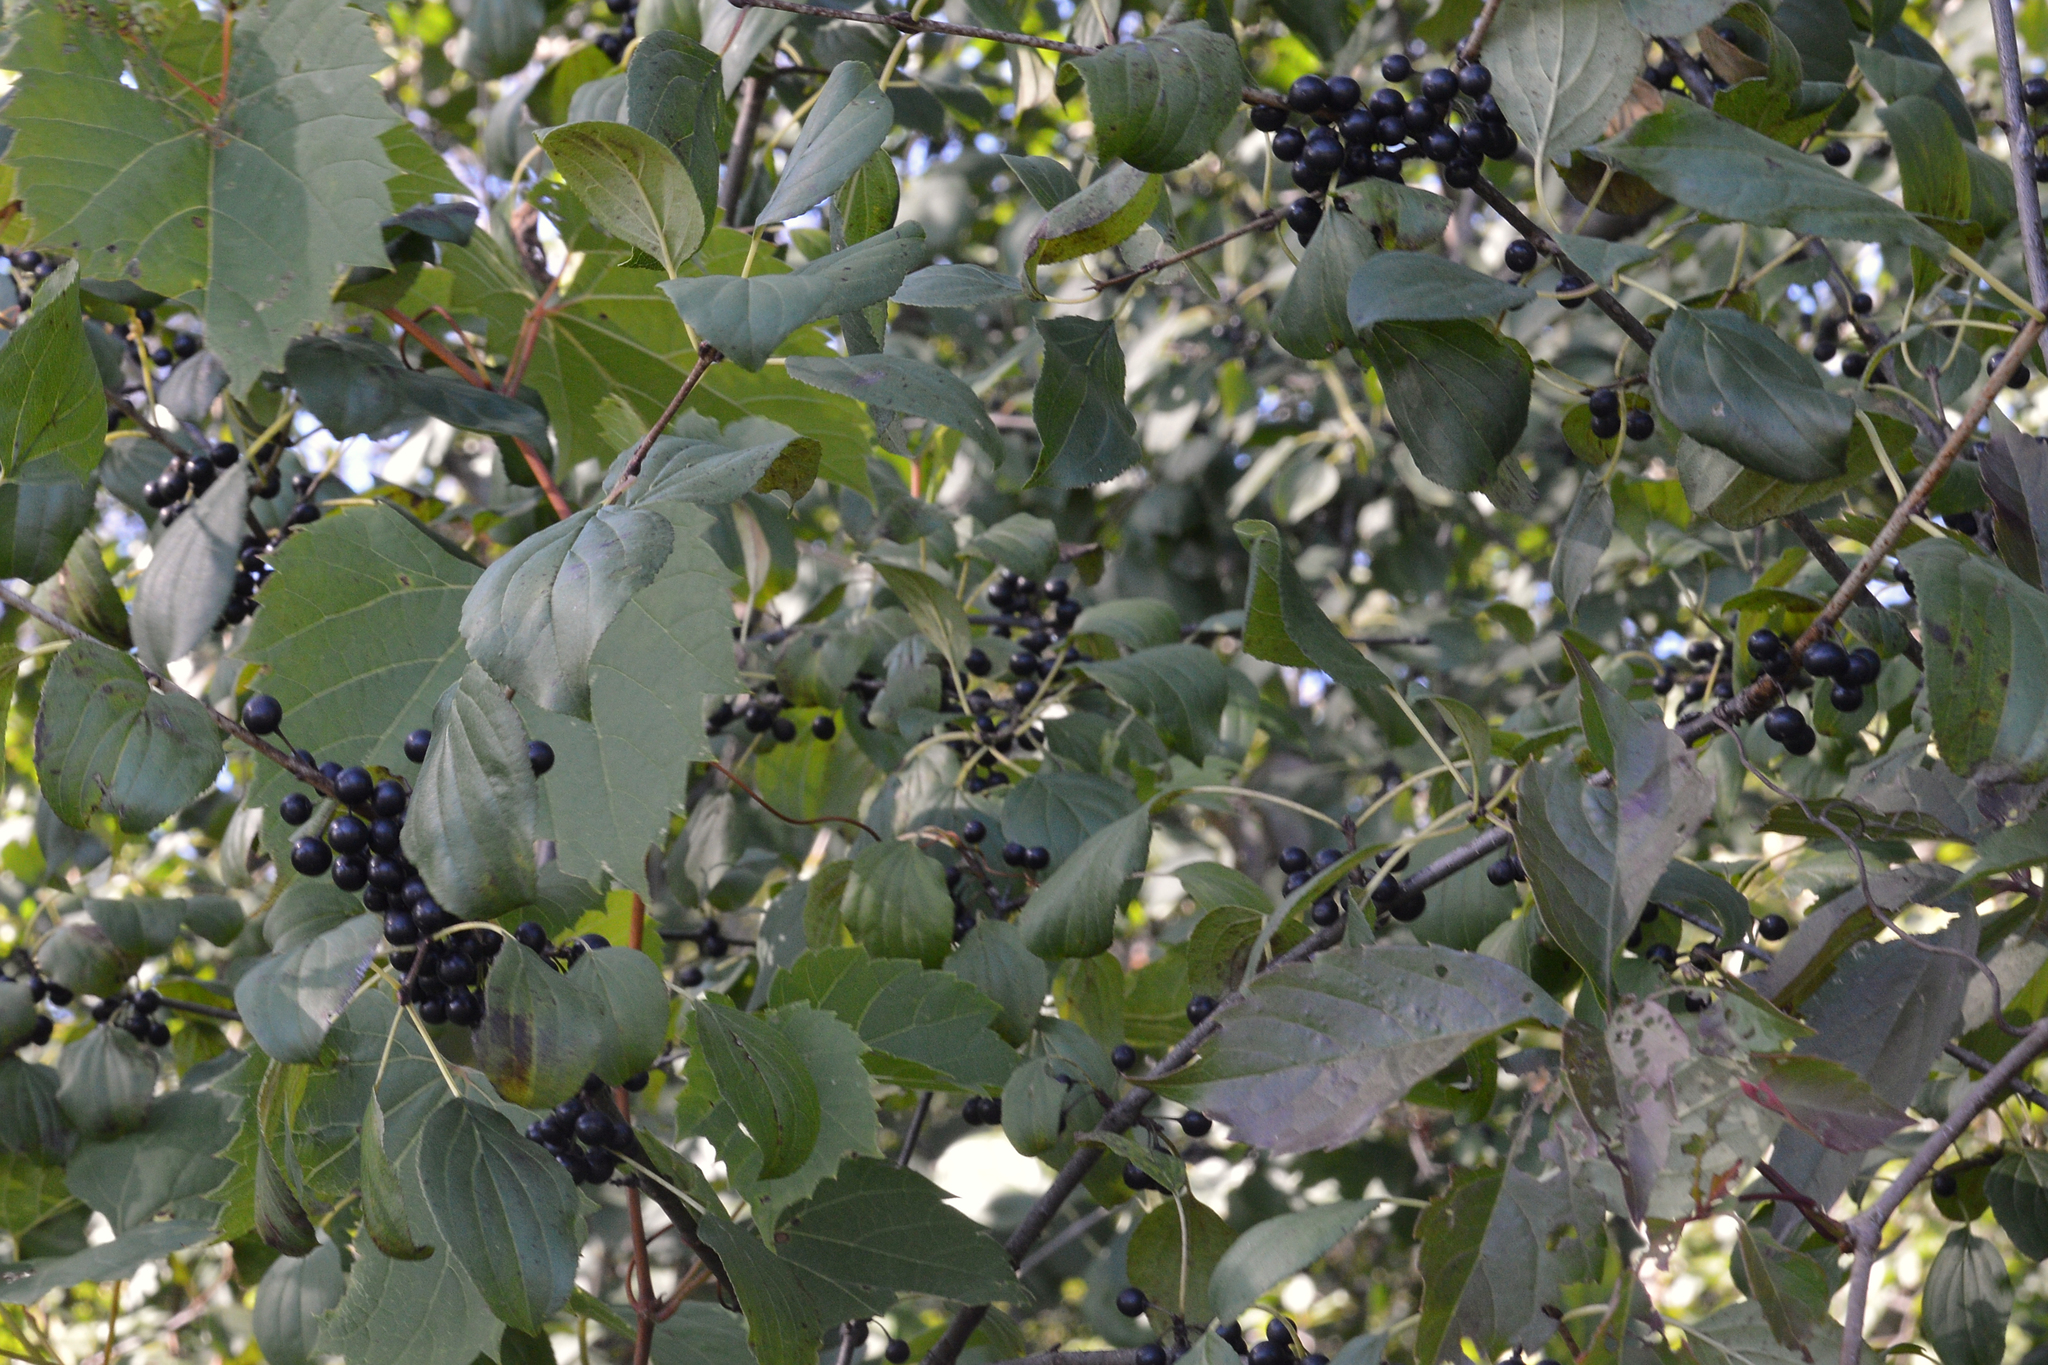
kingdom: Plantae
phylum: Tracheophyta
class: Magnoliopsida
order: Rosales
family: Rhamnaceae
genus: Rhamnus
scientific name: Rhamnus cathartica
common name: Common buckthorn
